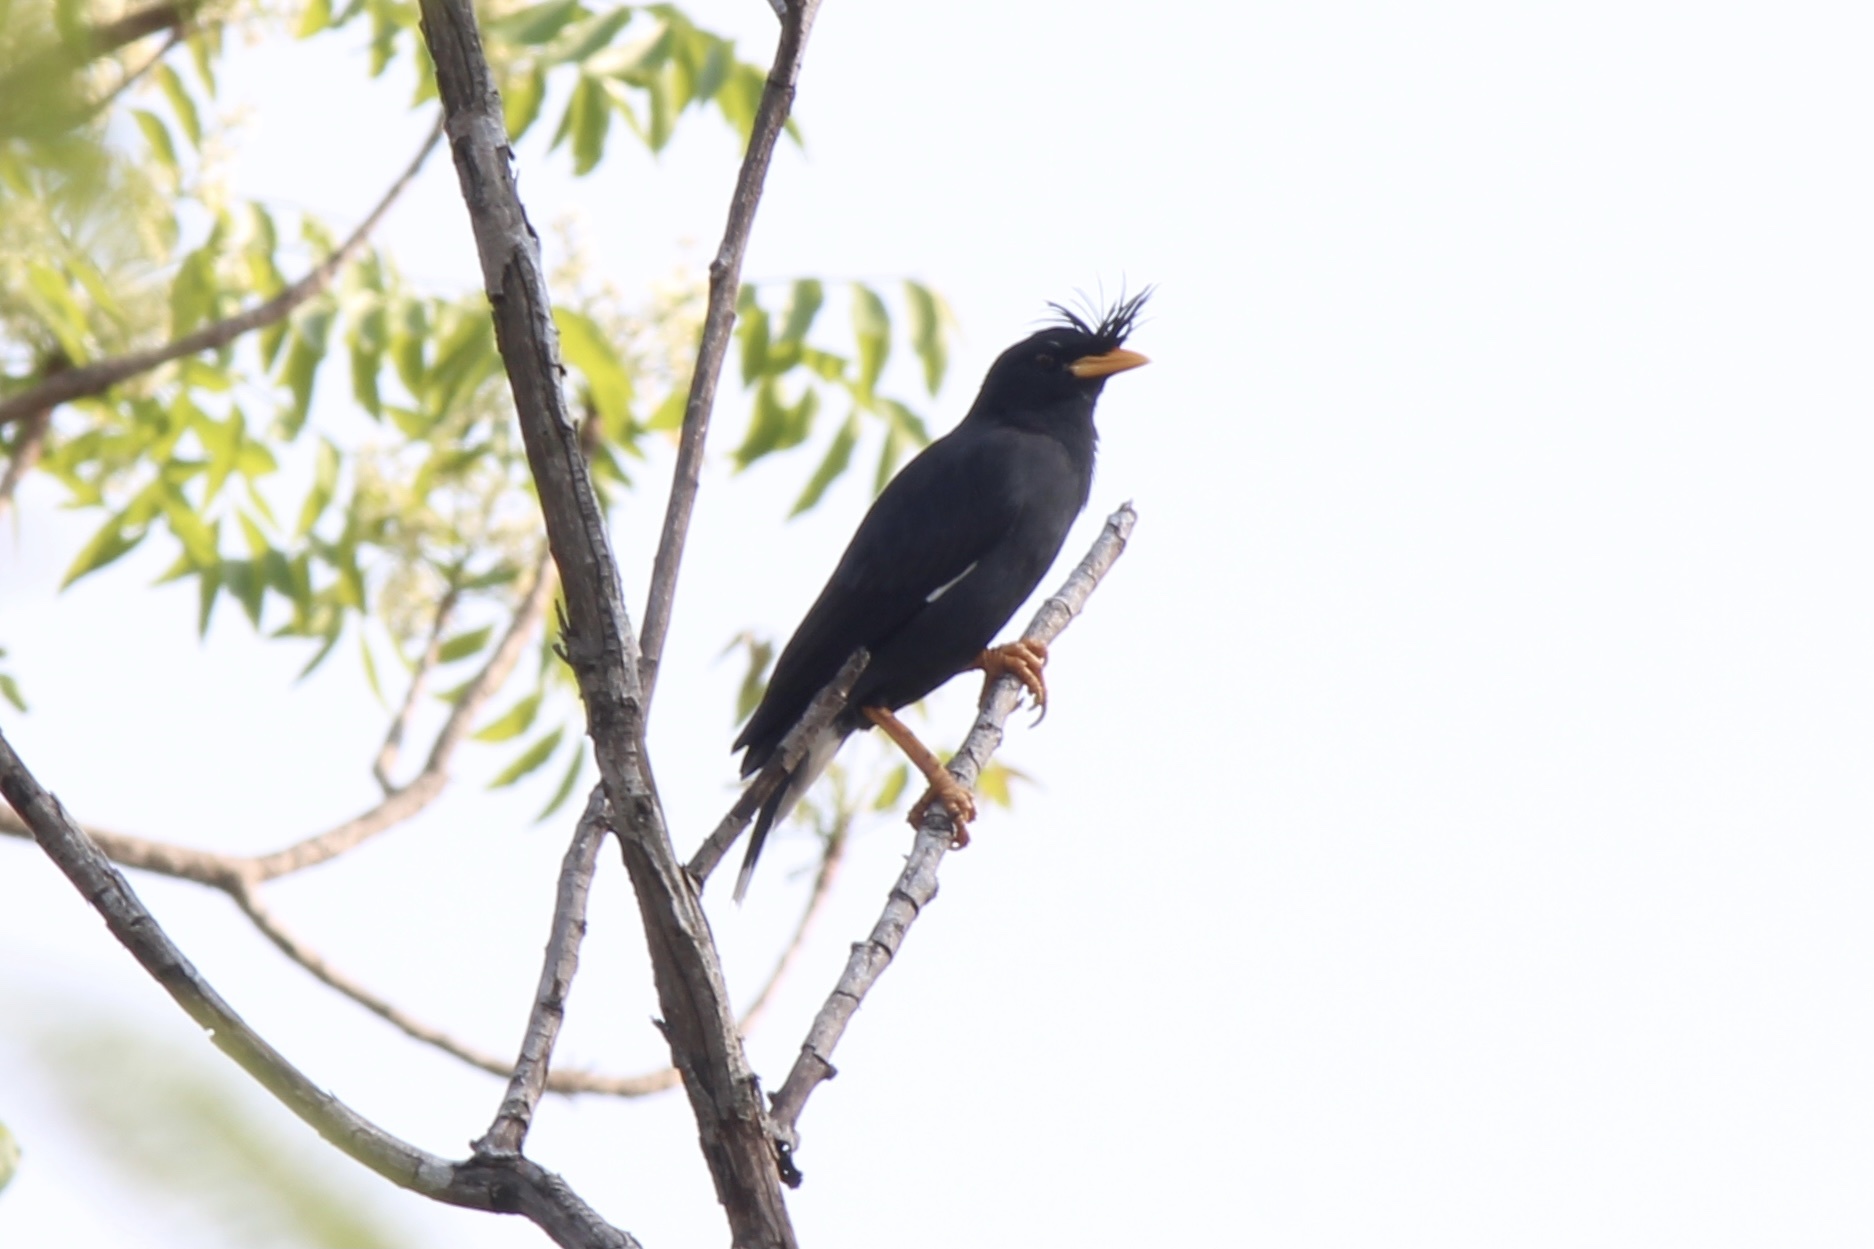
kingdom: Animalia
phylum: Chordata
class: Aves
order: Passeriformes
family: Sturnidae
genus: Acridotheres
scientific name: Acridotheres grandis
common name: Great myna
